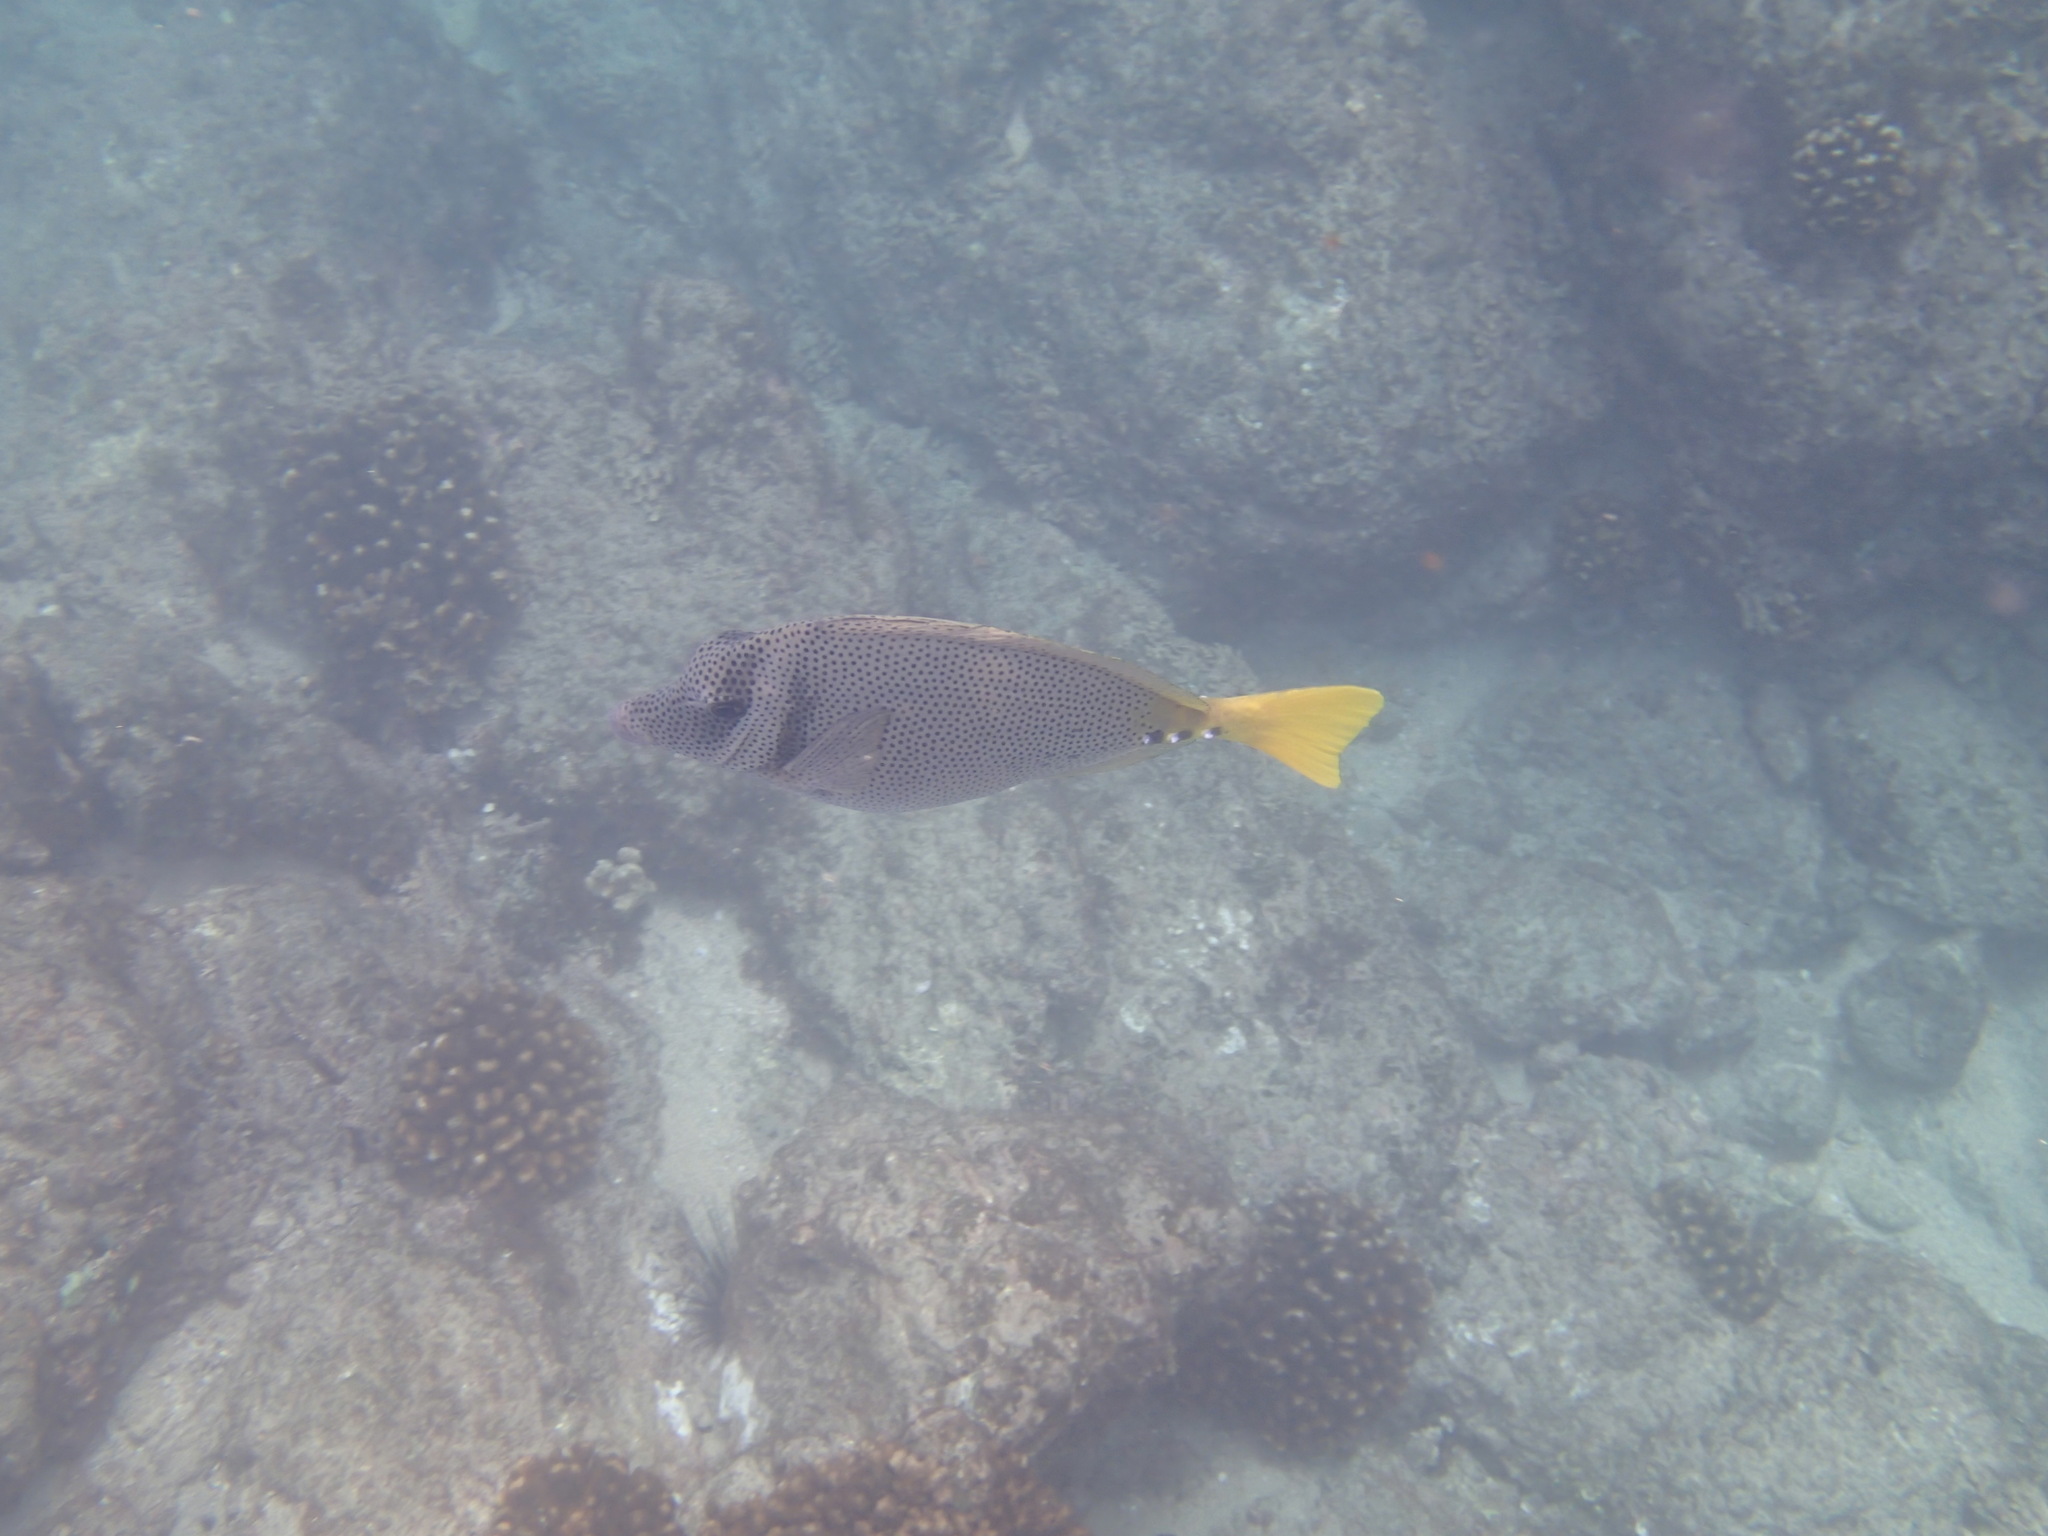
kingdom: Animalia
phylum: Chordata
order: Perciformes
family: Acanthuridae
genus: Prionurus
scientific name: Prionurus laticlavius
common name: Razor surgeonfish
